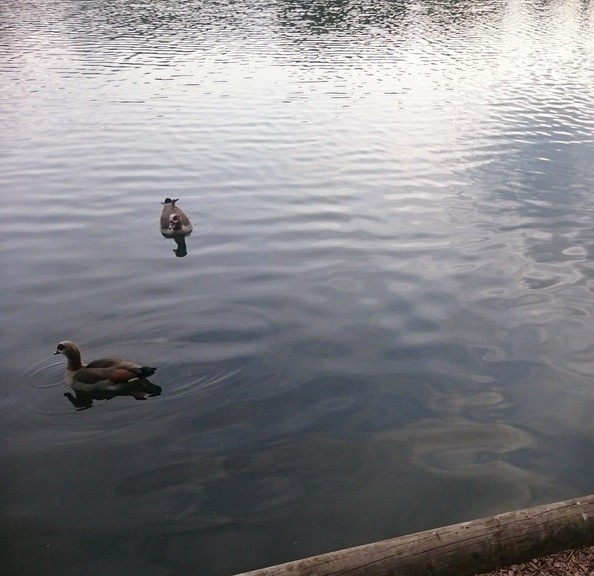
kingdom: Animalia
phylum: Chordata
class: Aves
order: Anseriformes
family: Anatidae
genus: Alopochen
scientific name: Alopochen aegyptiaca
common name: Egyptian goose
